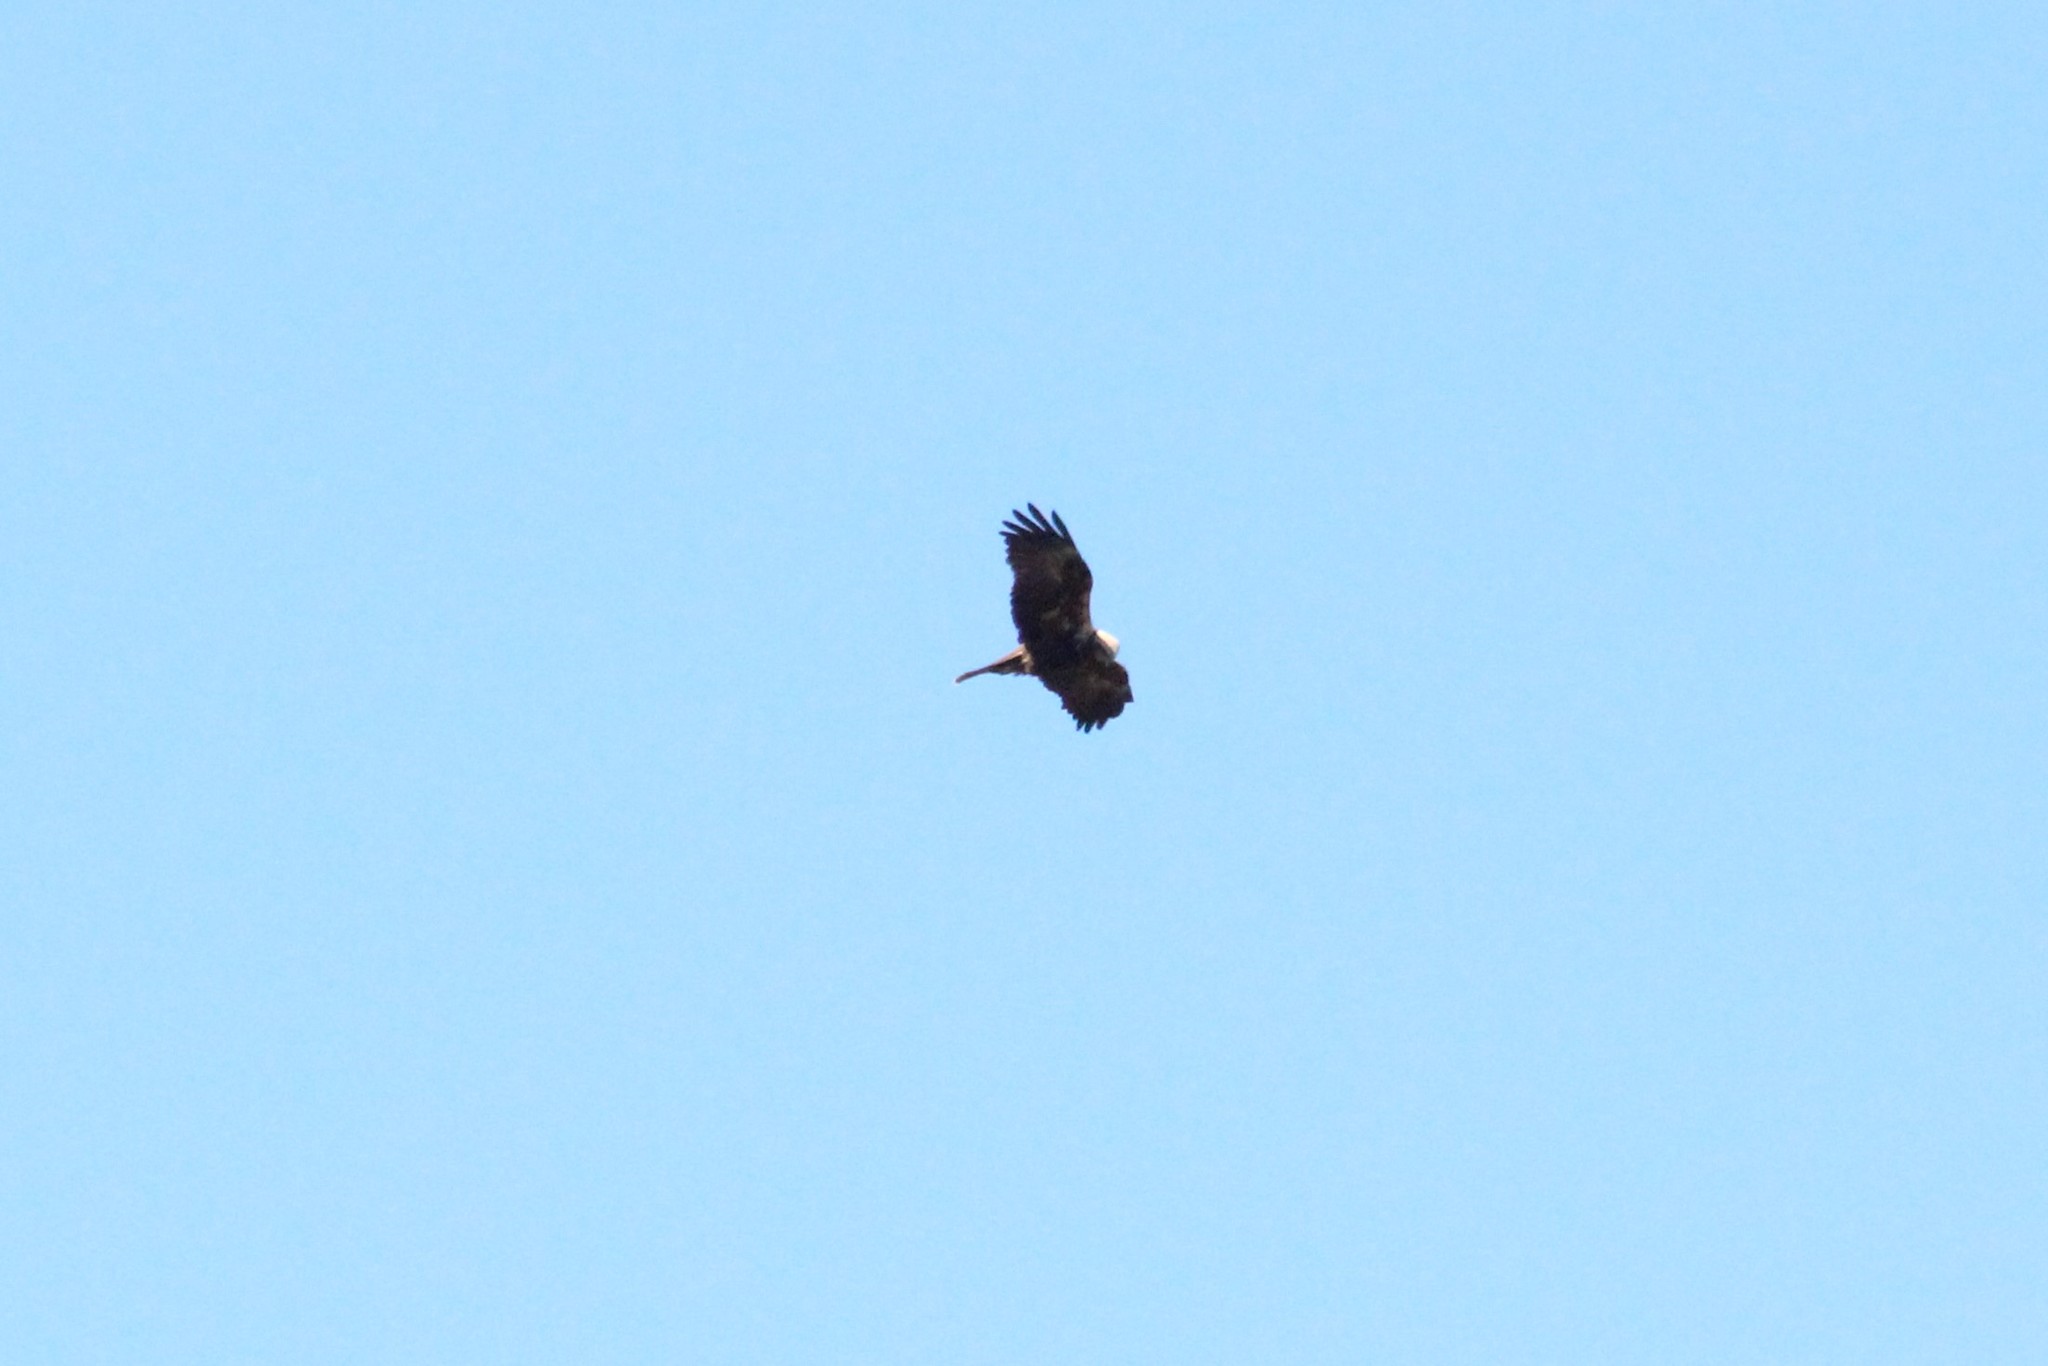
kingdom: Animalia
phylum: Chordata
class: Aves
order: Accipitriformes
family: Accipitridae
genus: Circus
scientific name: Circus aeruginosus
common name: Western marsh harrier
